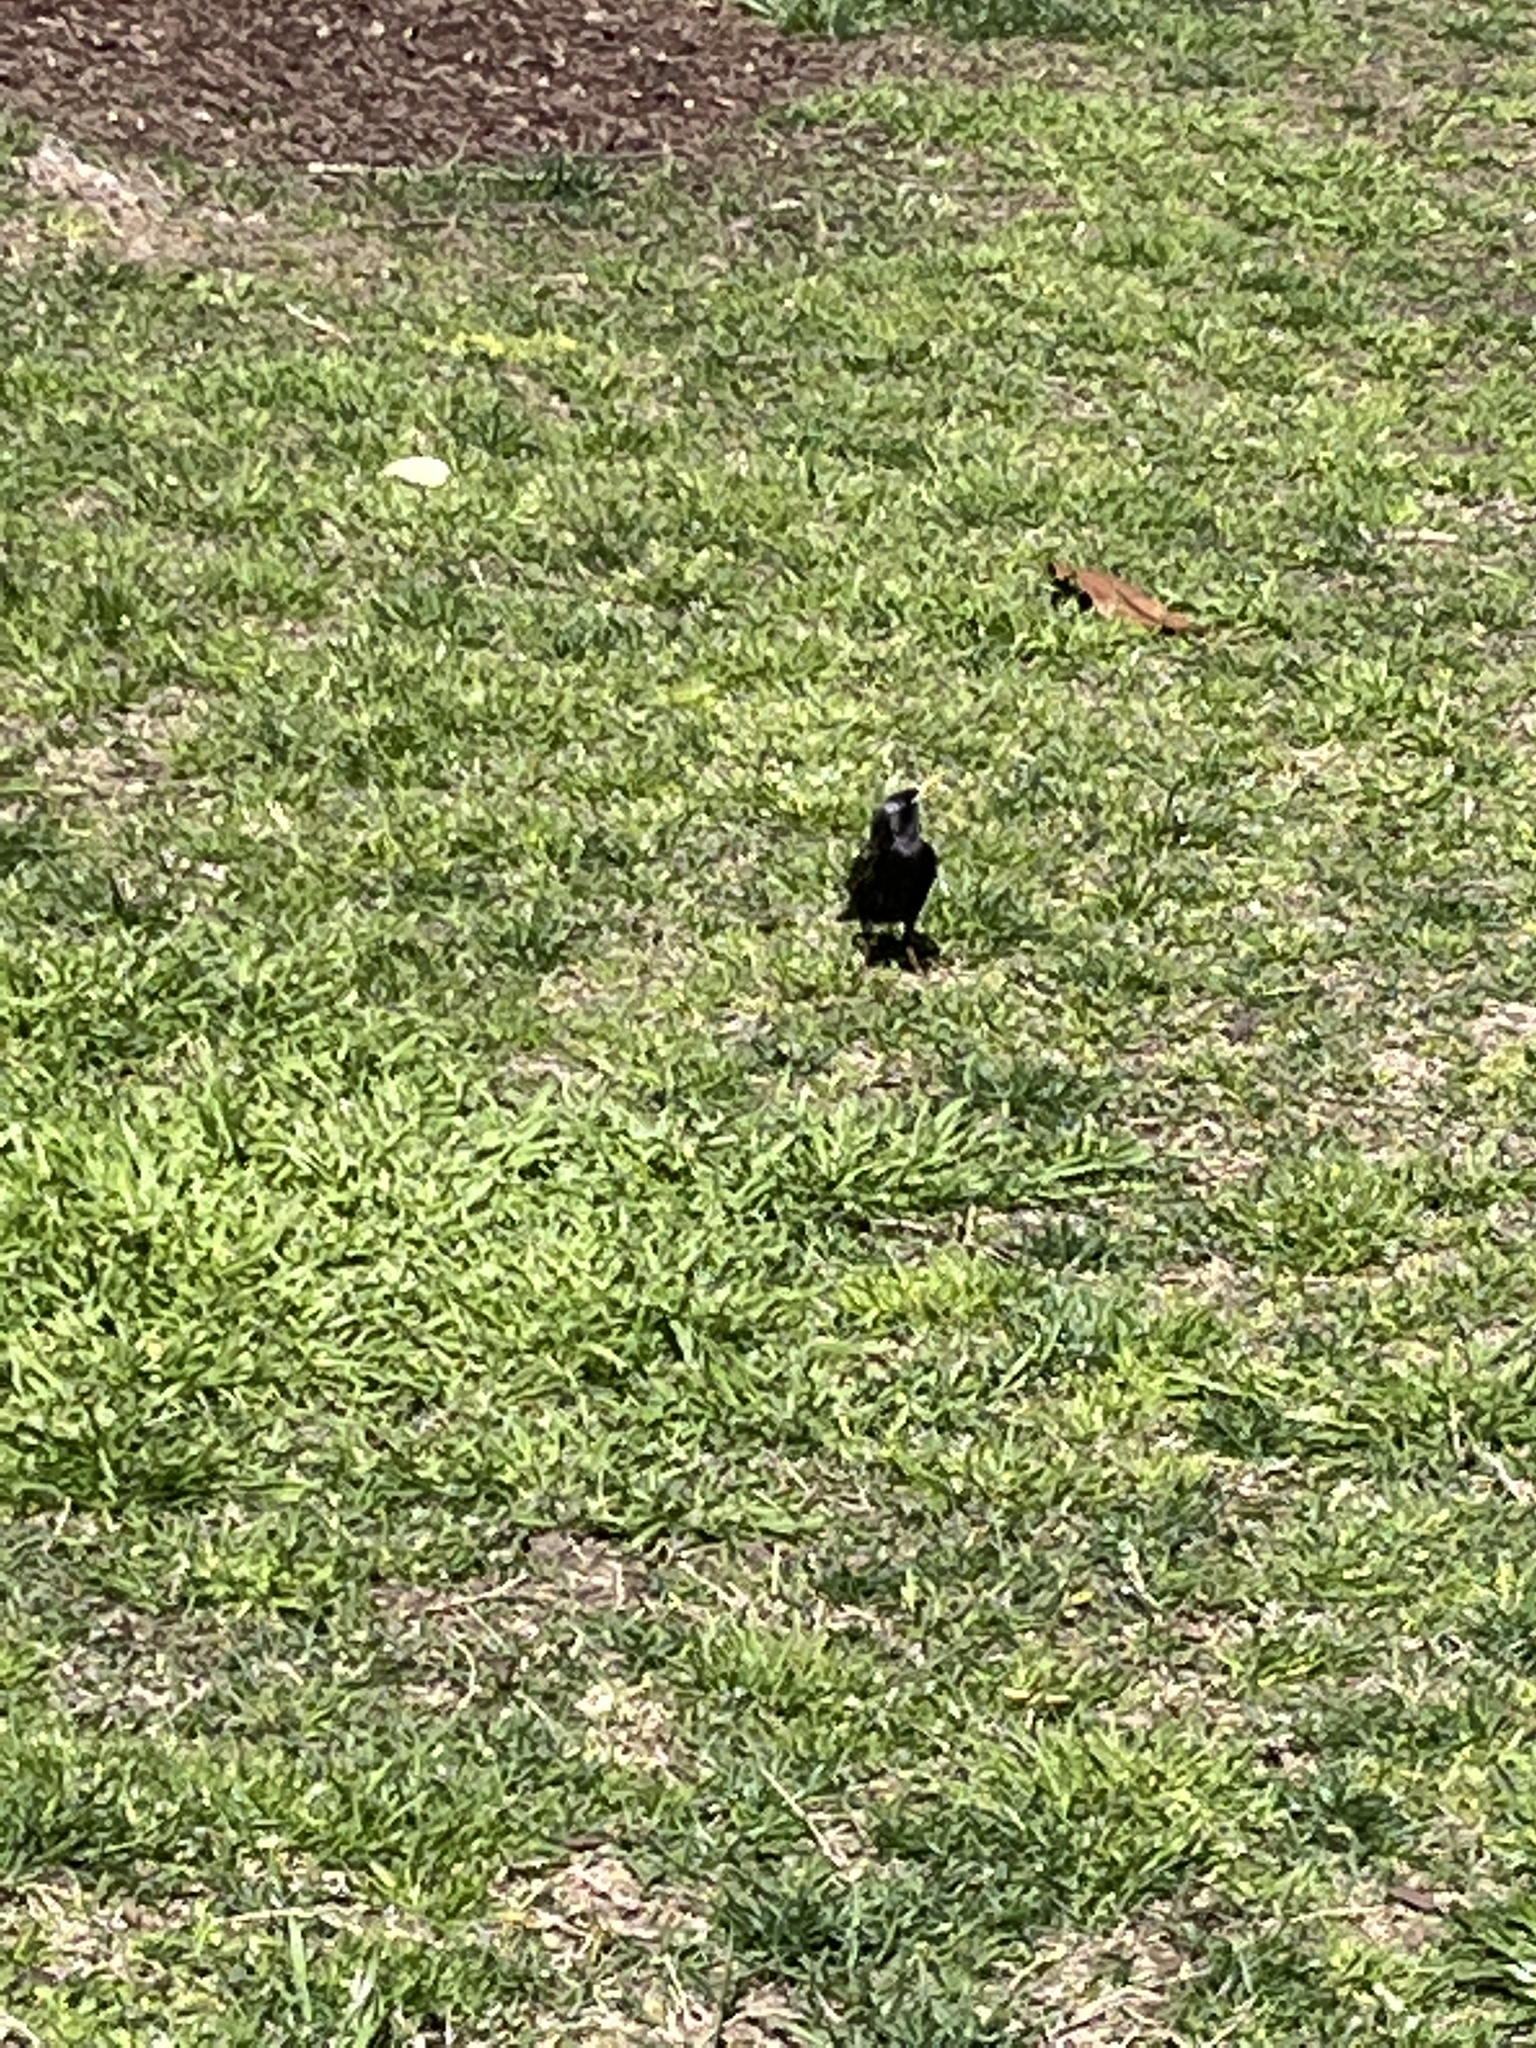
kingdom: Animalia
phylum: Chordata
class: Aves
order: Passeriformes
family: Sturnidae
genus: Sturnus
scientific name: Sturnus vulgaris
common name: Common starling
